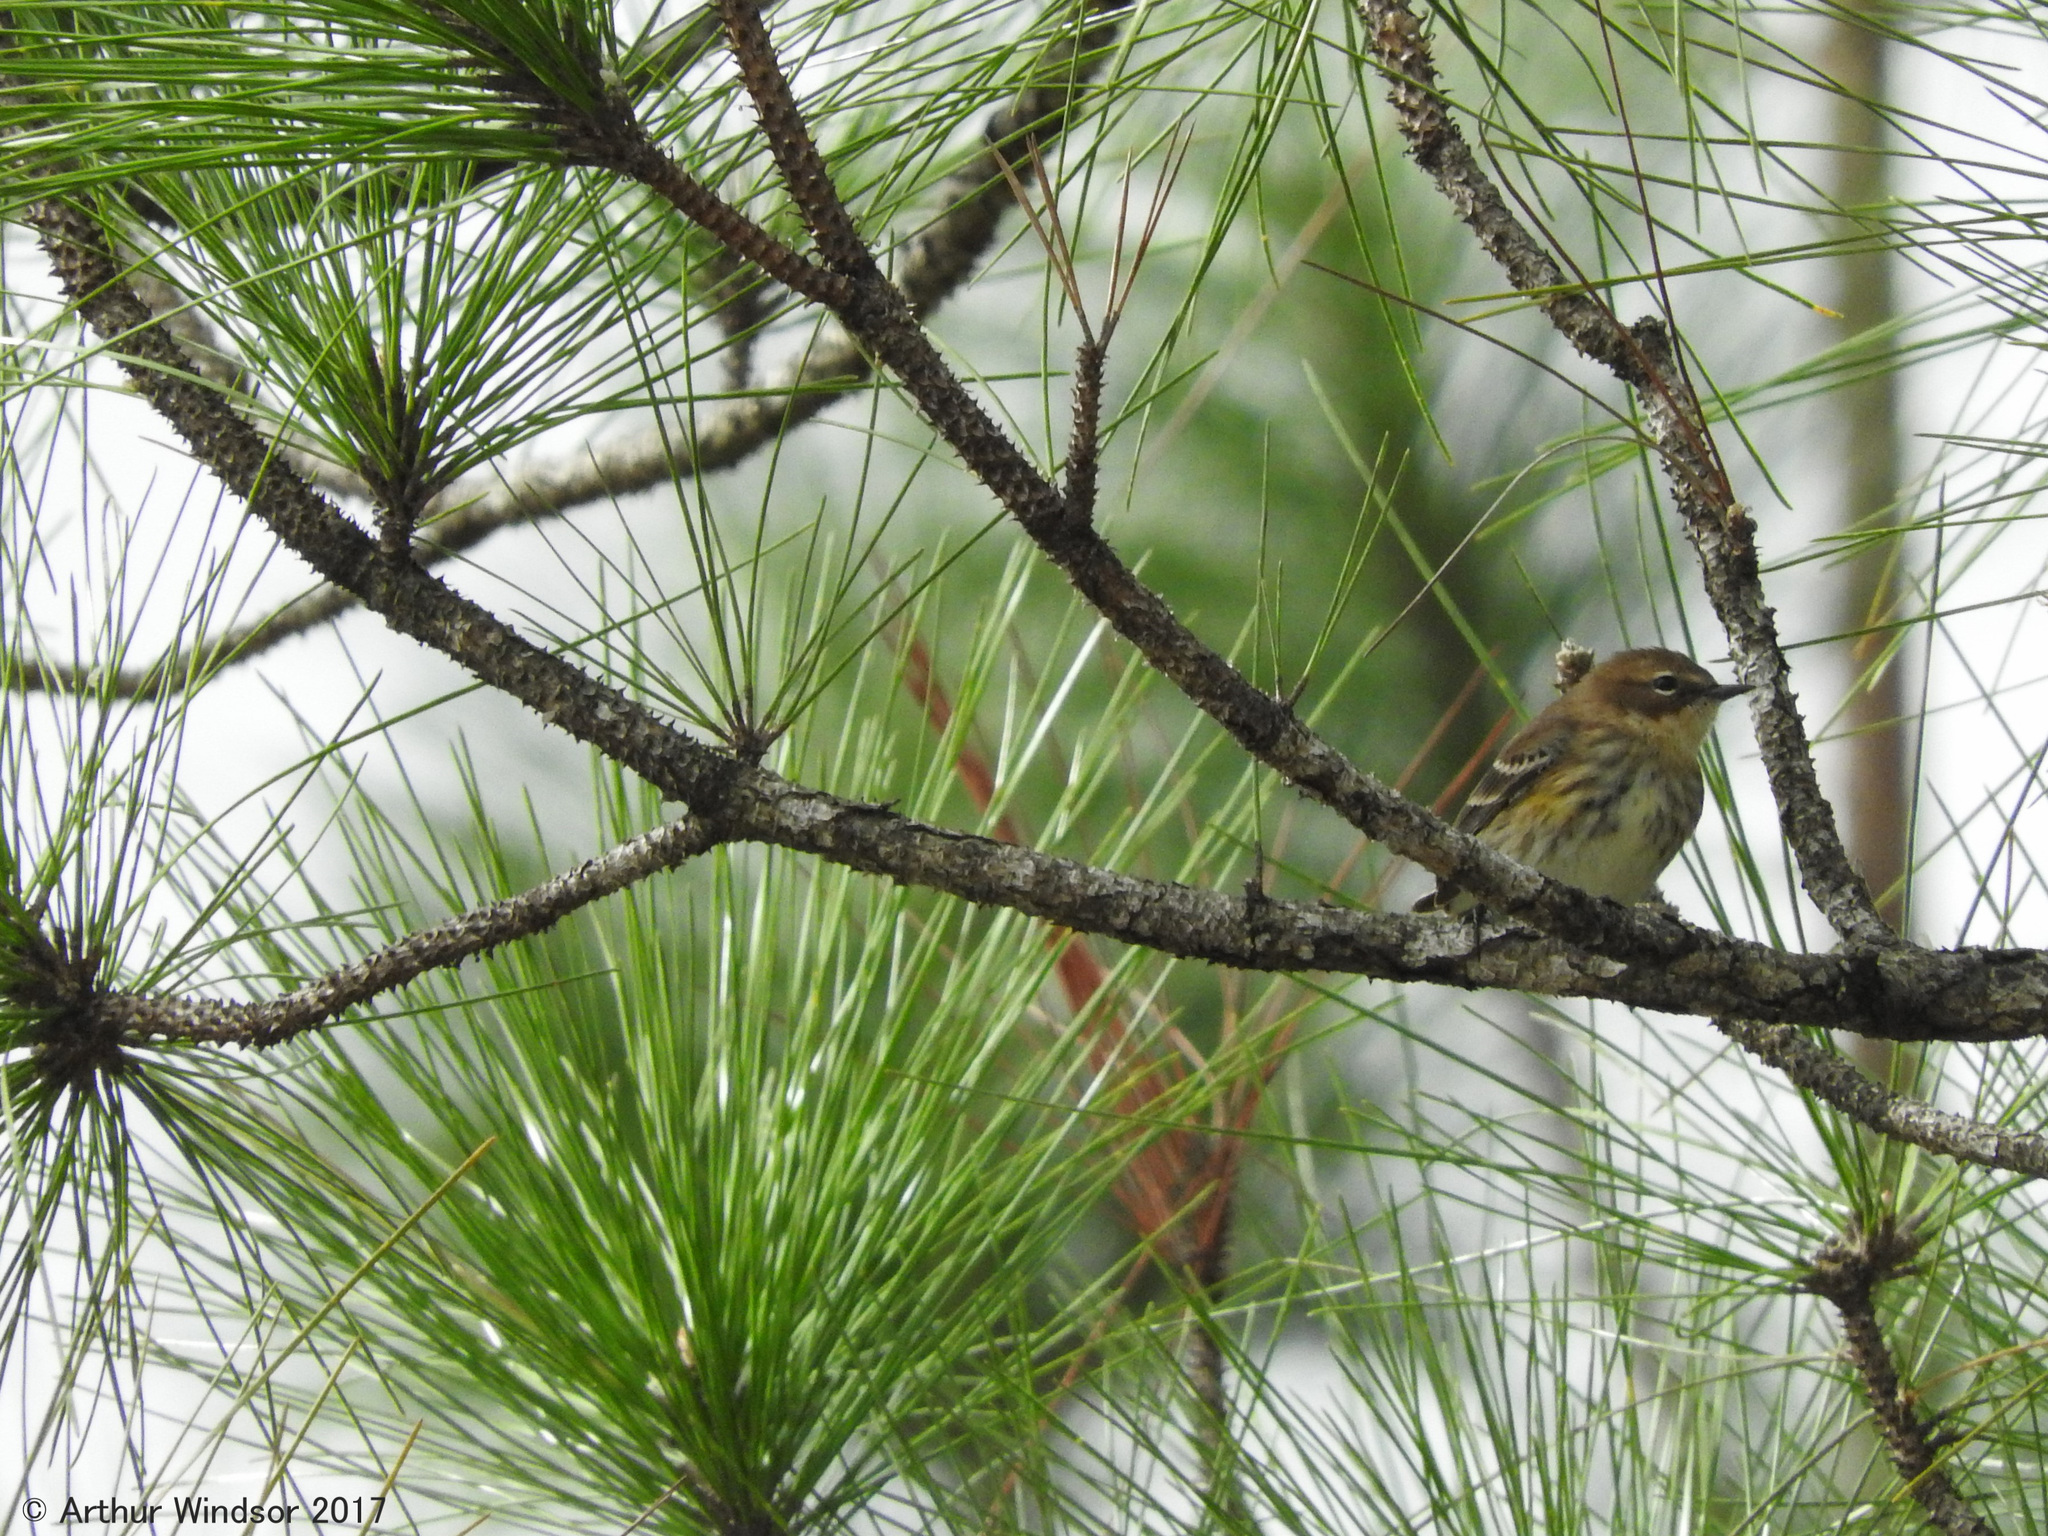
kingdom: Animalia
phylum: Chordata
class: Aves
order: Passeriformes
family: Parulidae
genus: Setophaga
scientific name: Setophaga coronata
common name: Myrtle warbler
